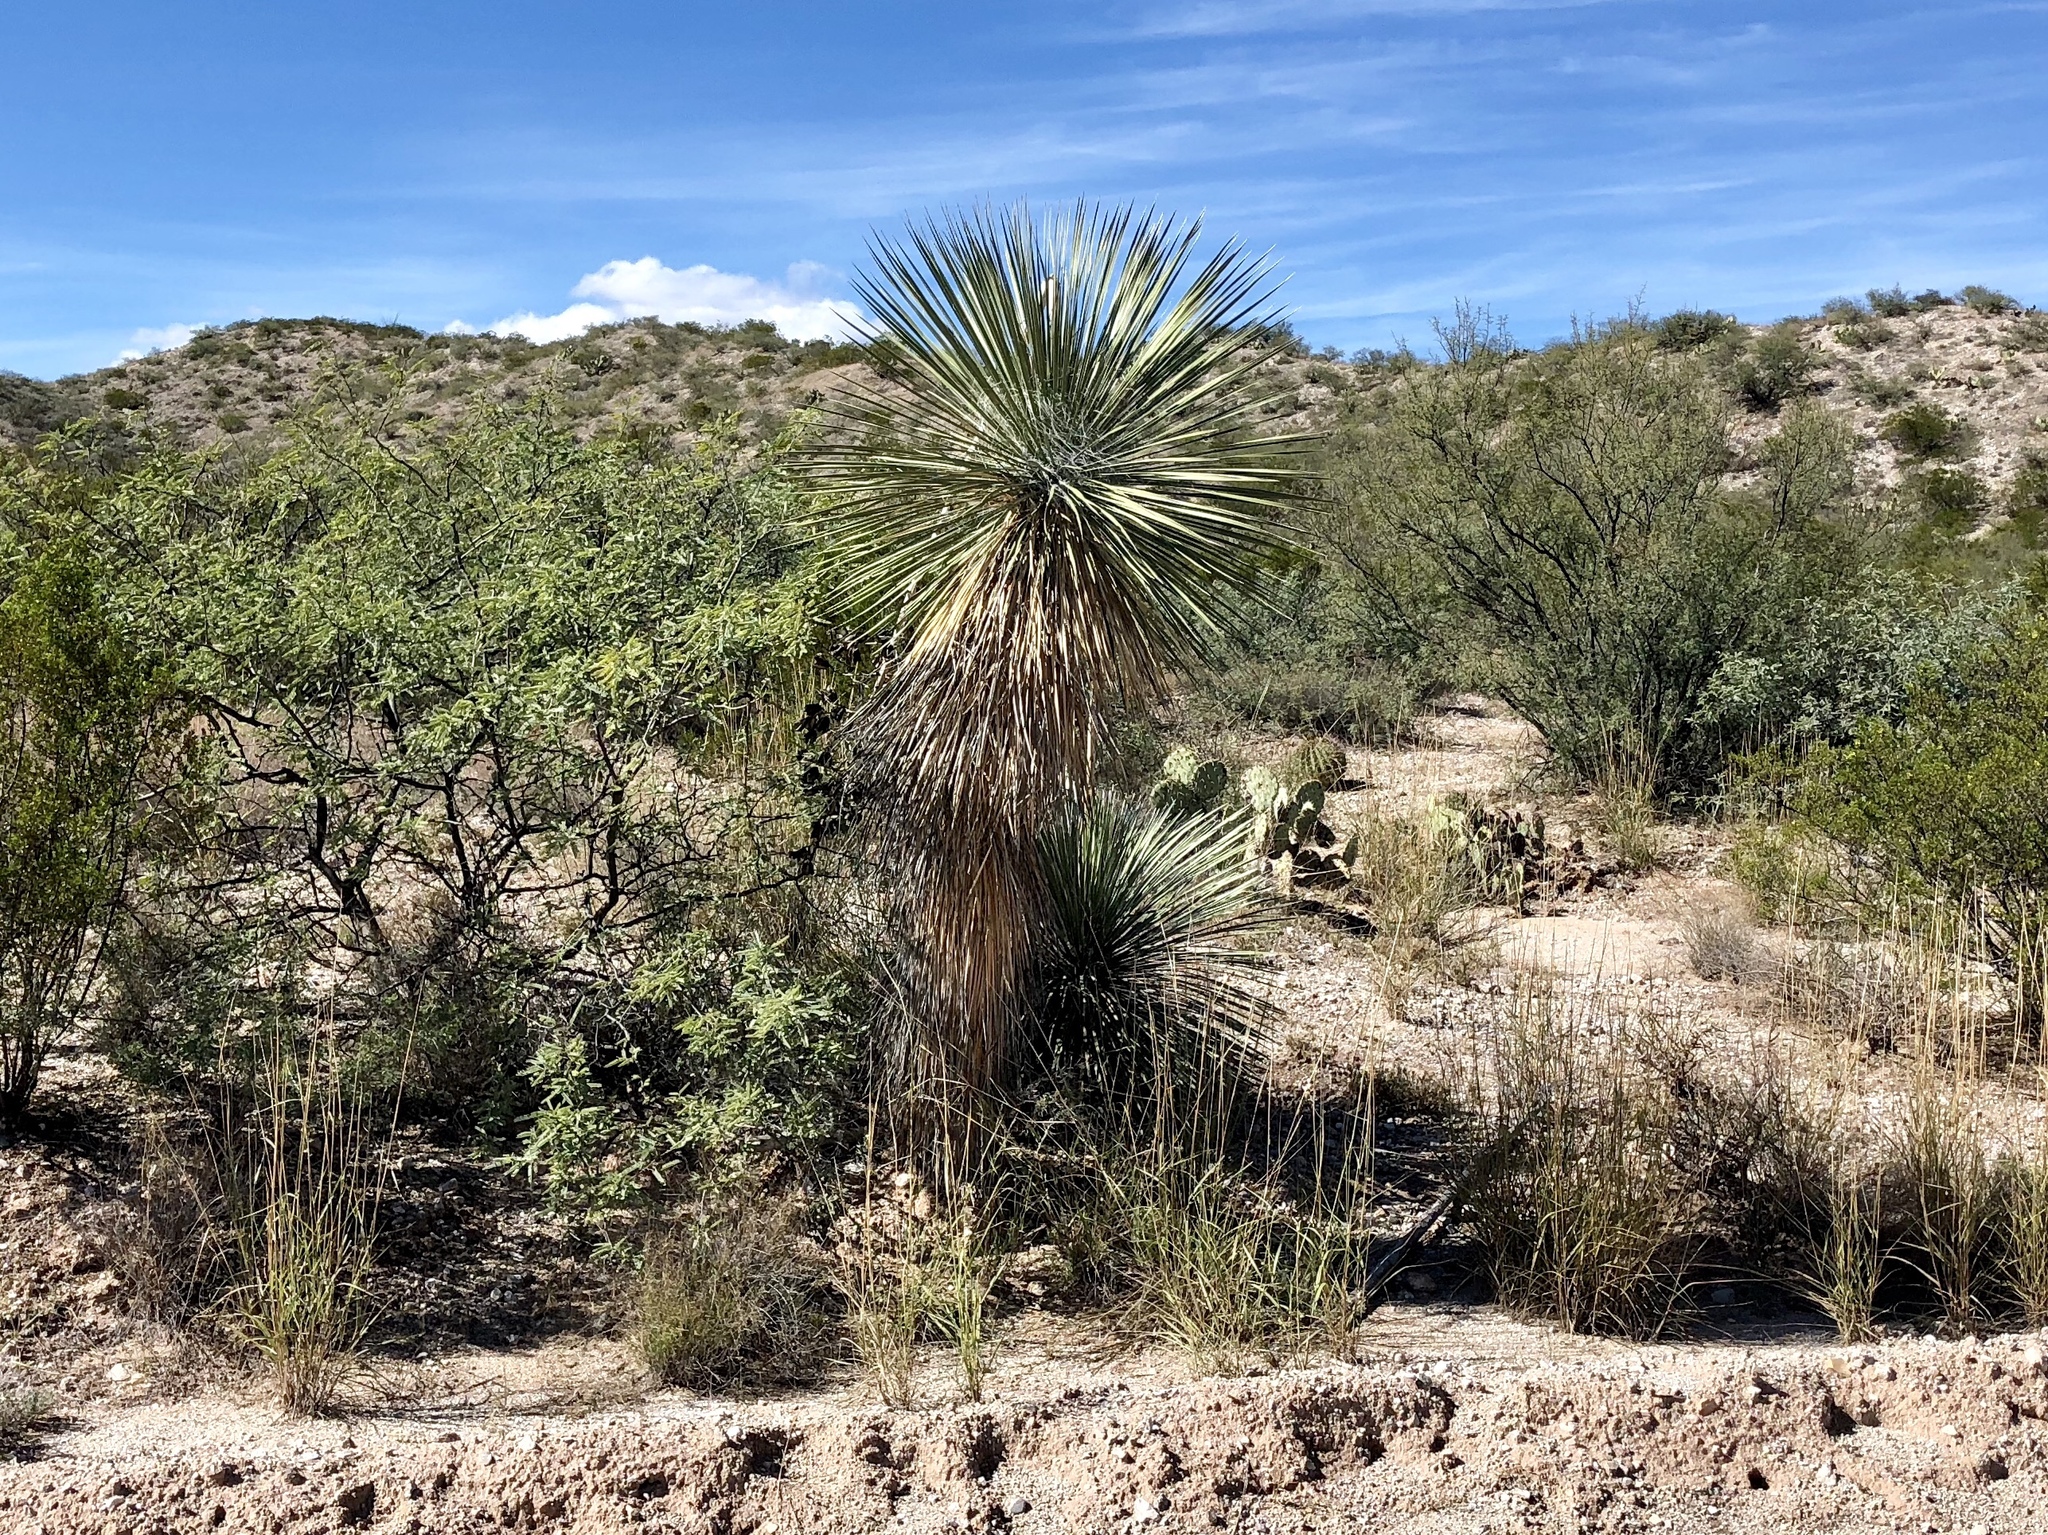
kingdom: Plantae
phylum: Tracheophyta
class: Liliopsida
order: Asparagales
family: Asparagaceae
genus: Yucca
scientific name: Yucca elata
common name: Palmella
